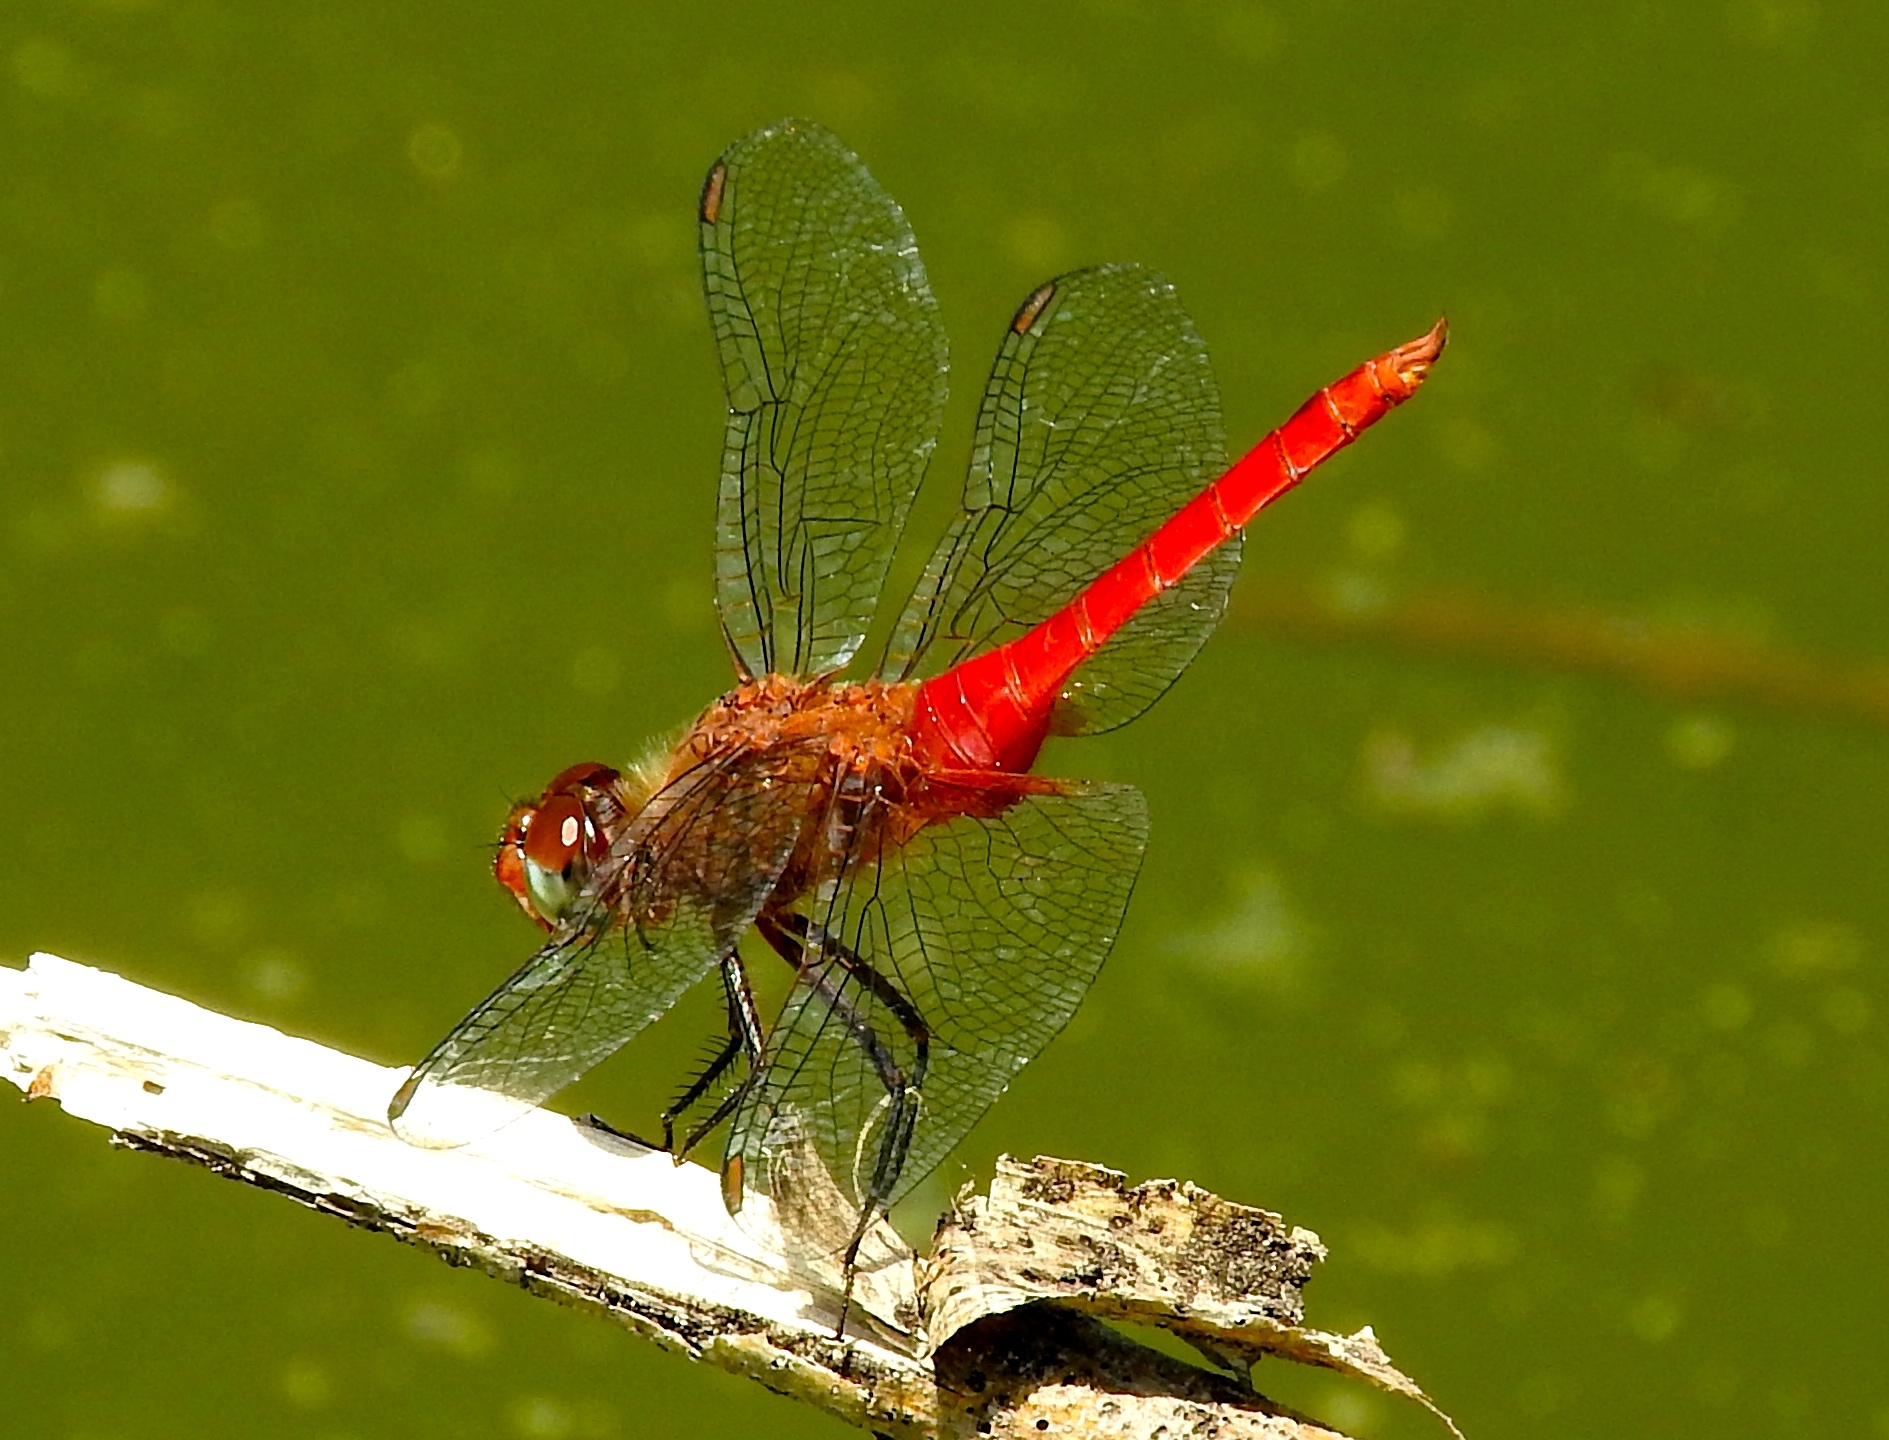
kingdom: Animalia
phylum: Arthropoda
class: Insecta
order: Odonata
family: Libellulidae
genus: Brachymesia
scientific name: Brachymesia furcata
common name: Red-taled pennant
